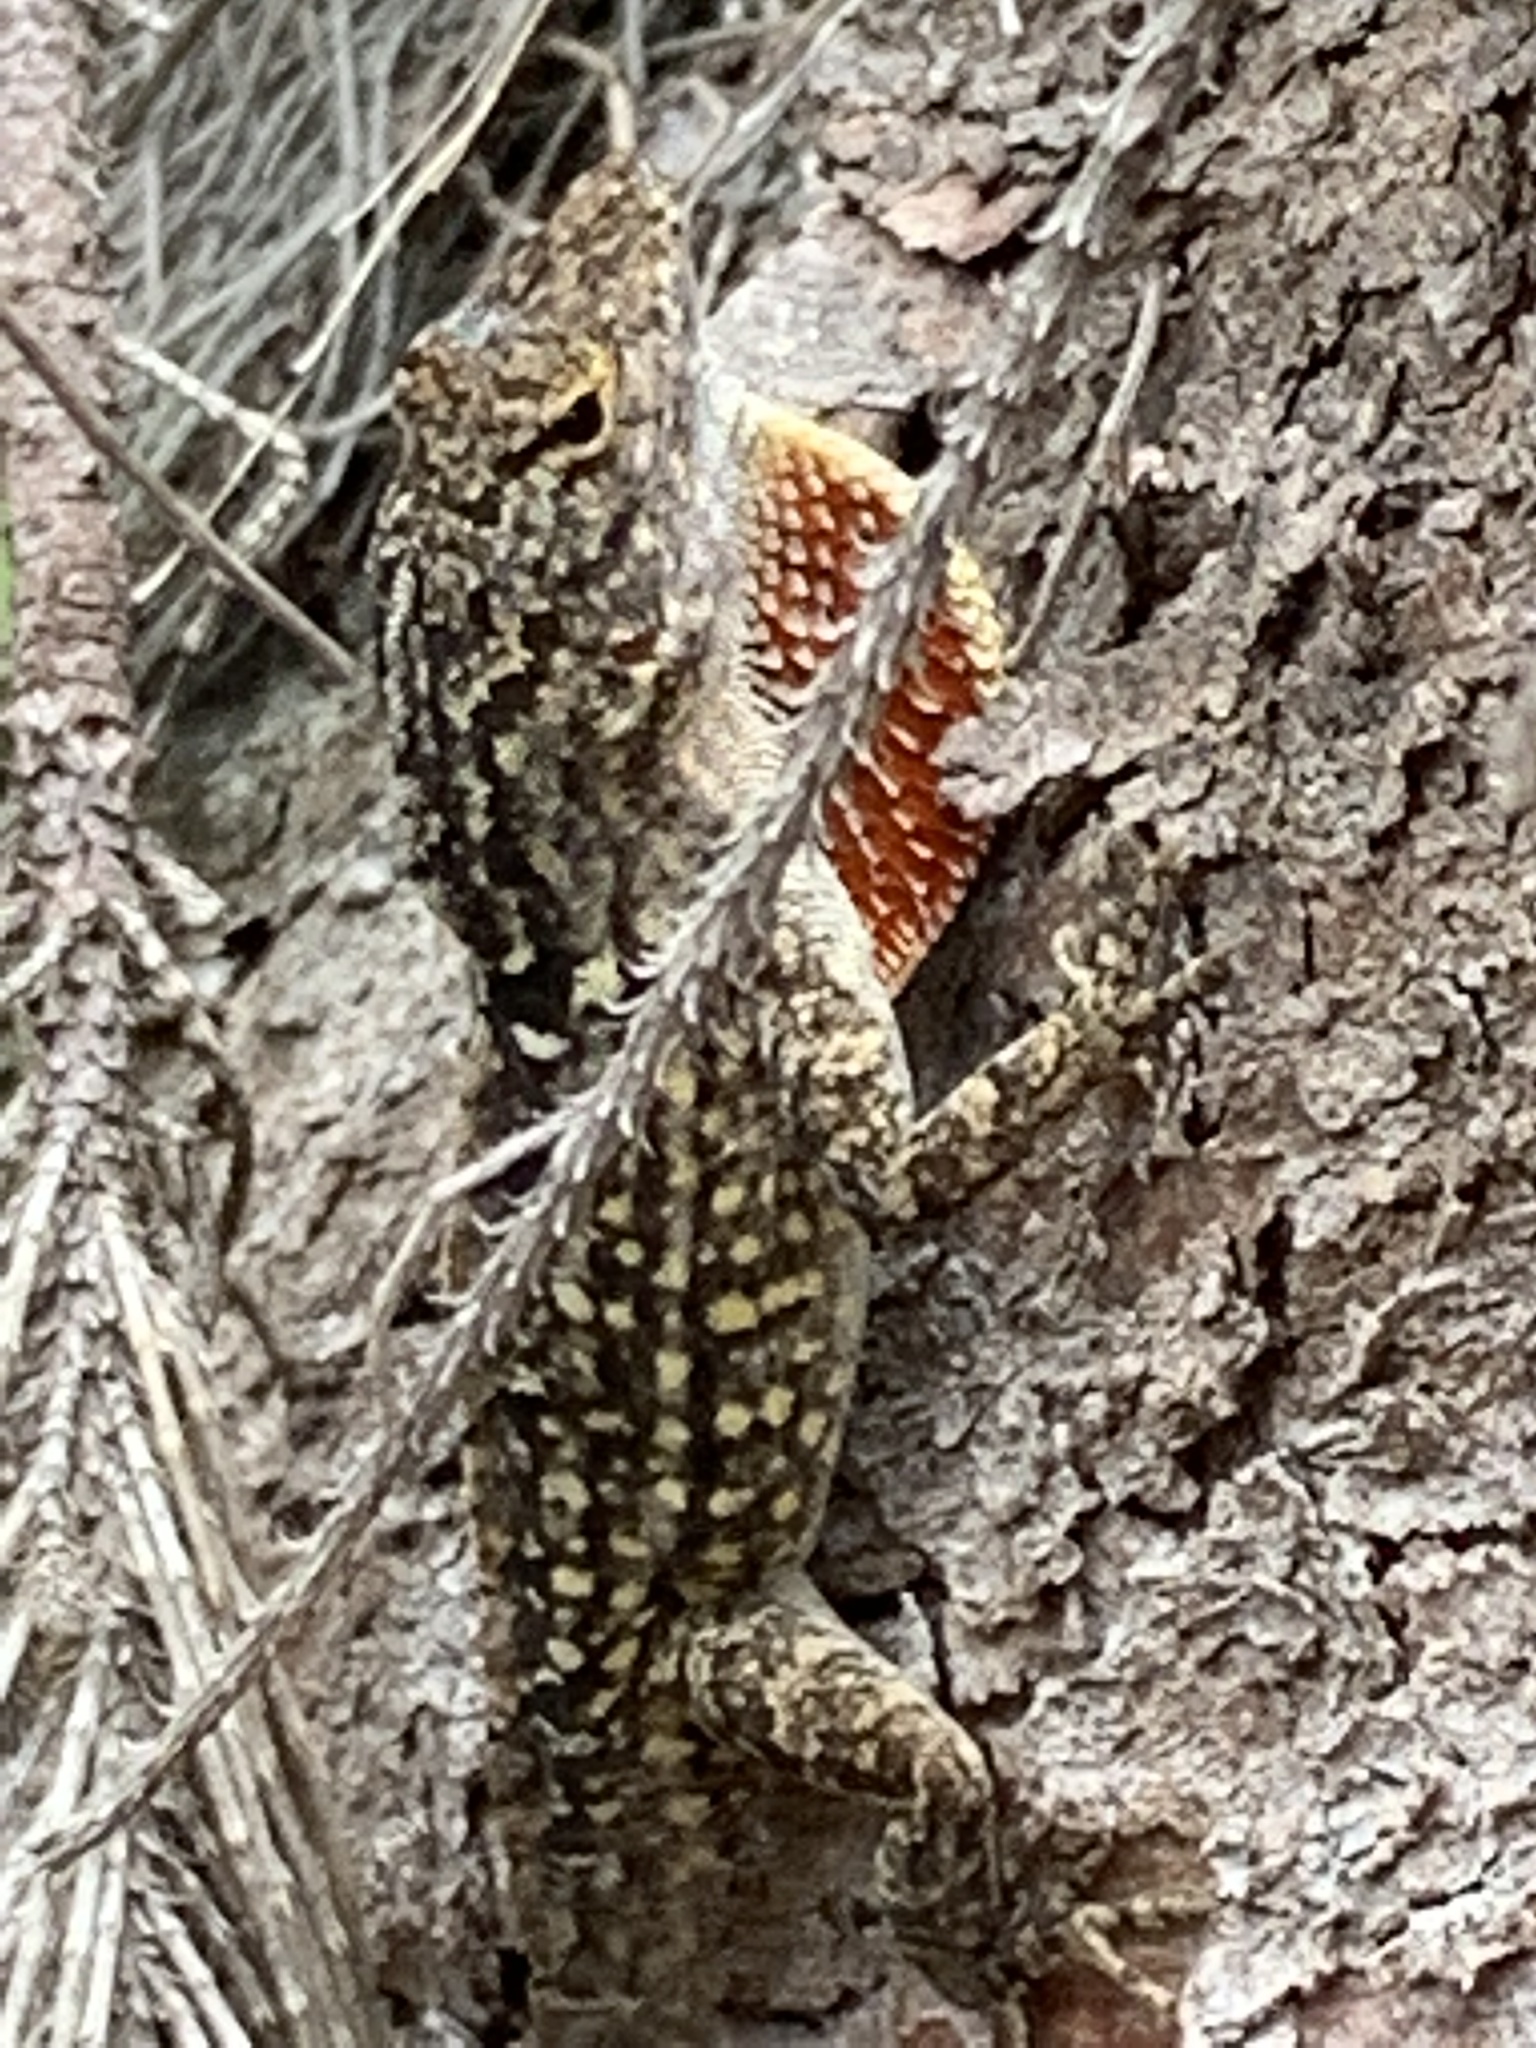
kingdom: Animalia
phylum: Chordata
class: Squamata
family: Dactyloidae
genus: Anolis
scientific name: Anolis sagrei
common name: Brown anole
